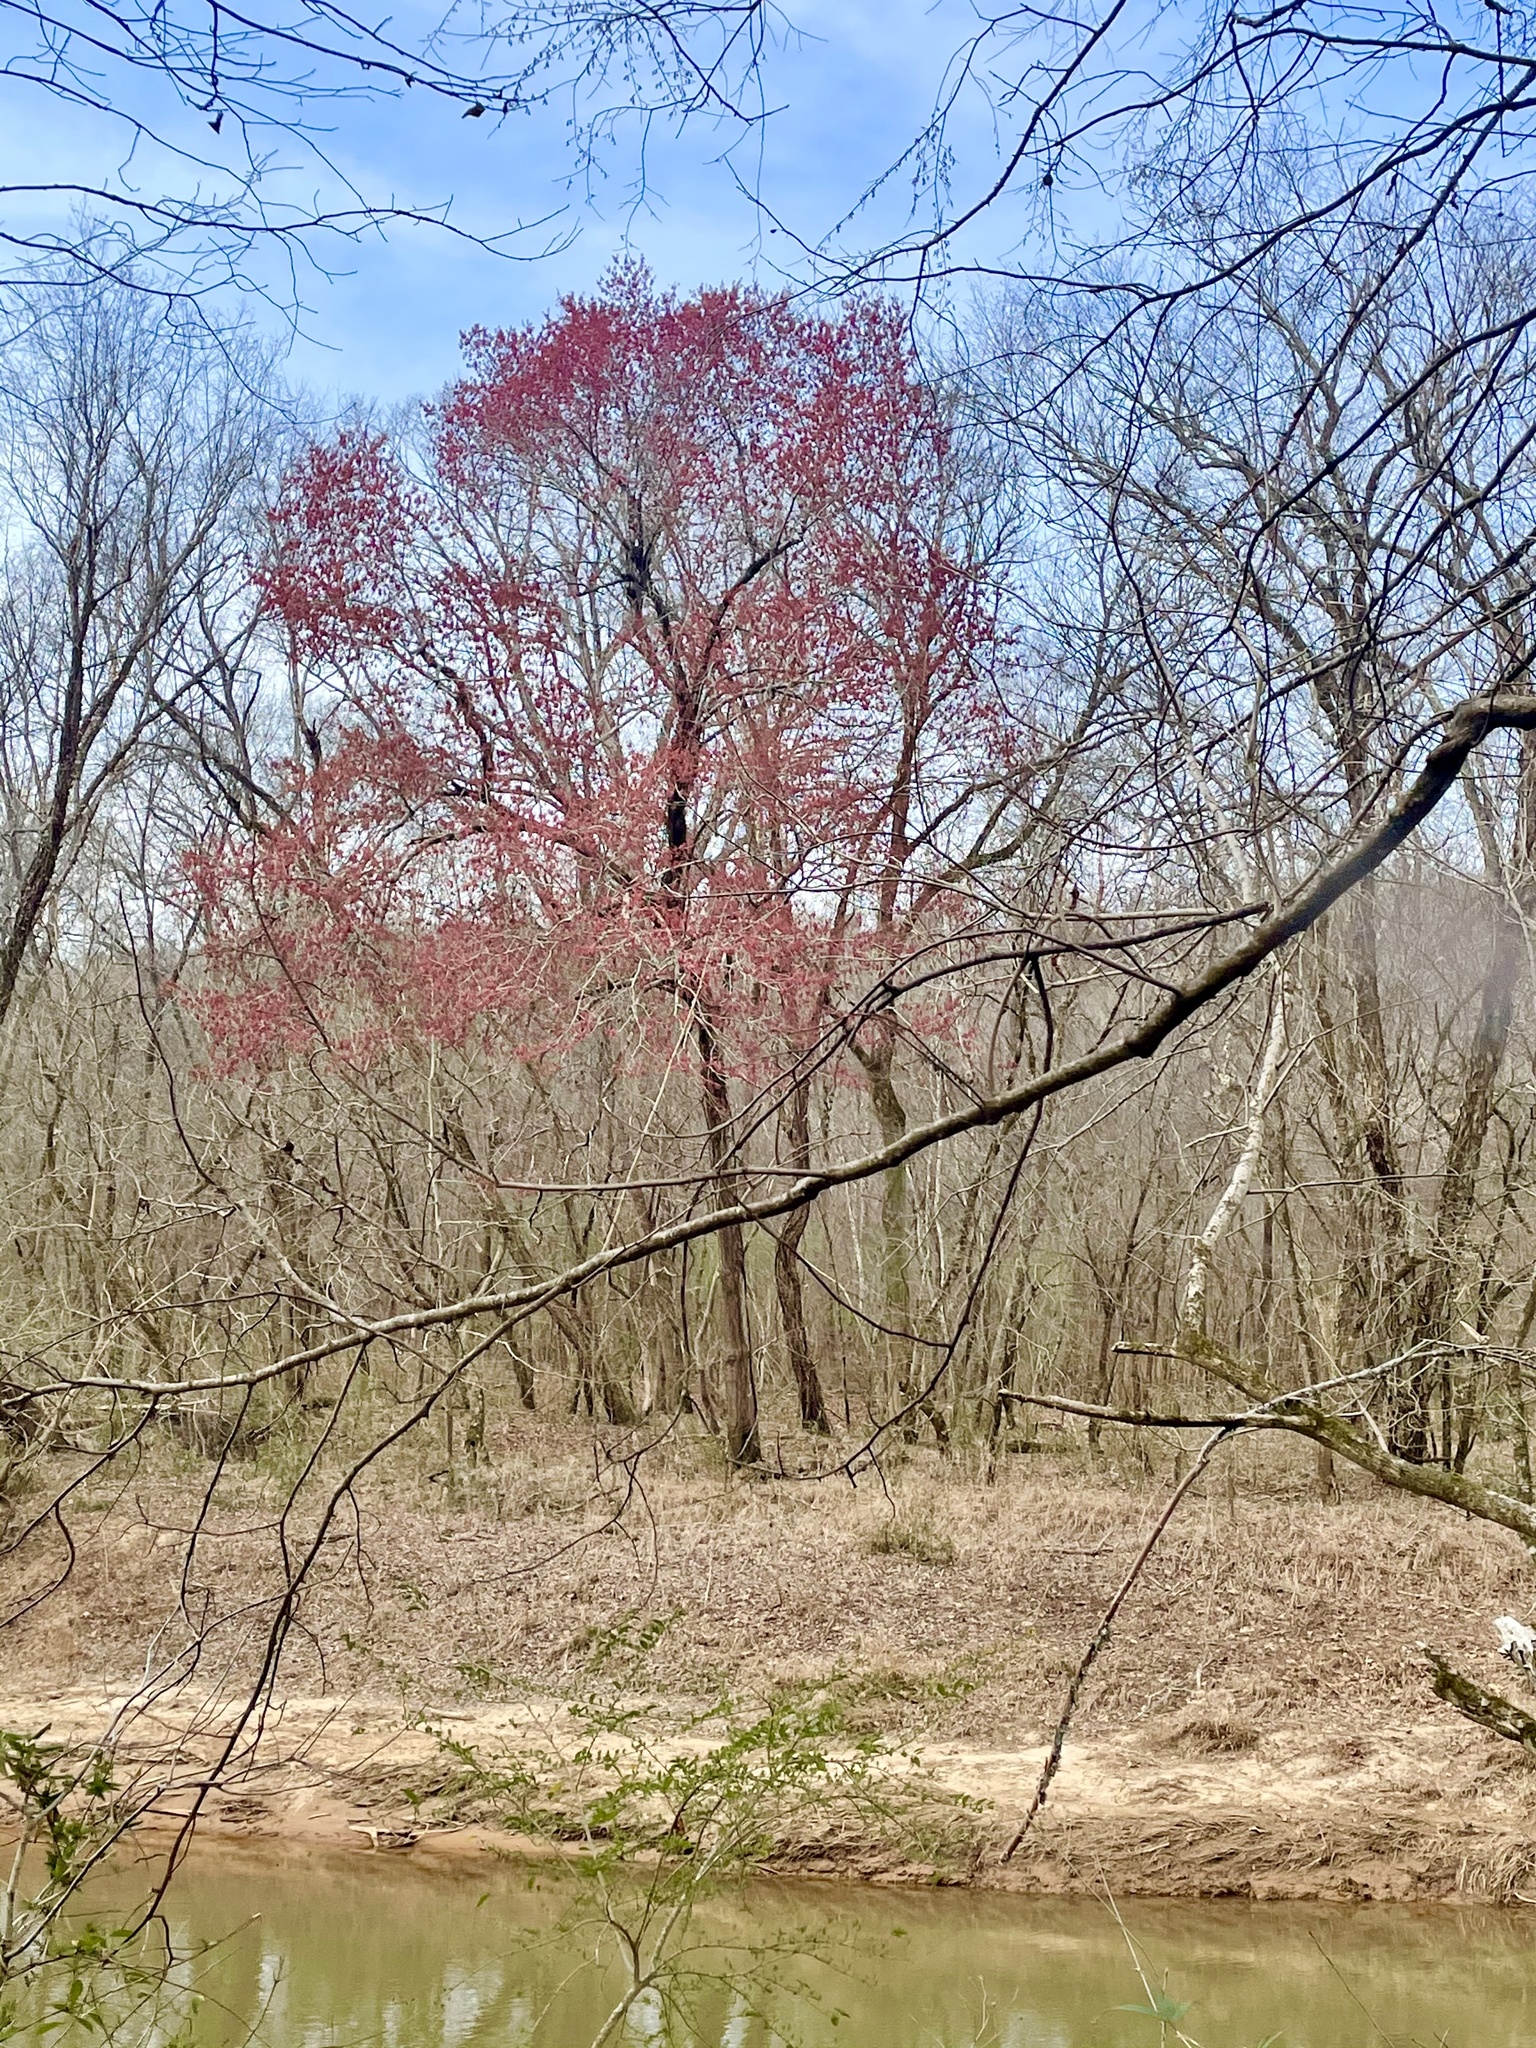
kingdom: Plantae
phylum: Tracheophyta
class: Magnoliopsida
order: Sapindales
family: Sapindaceae
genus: Acer
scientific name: Acer rubrum
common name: Red maple
